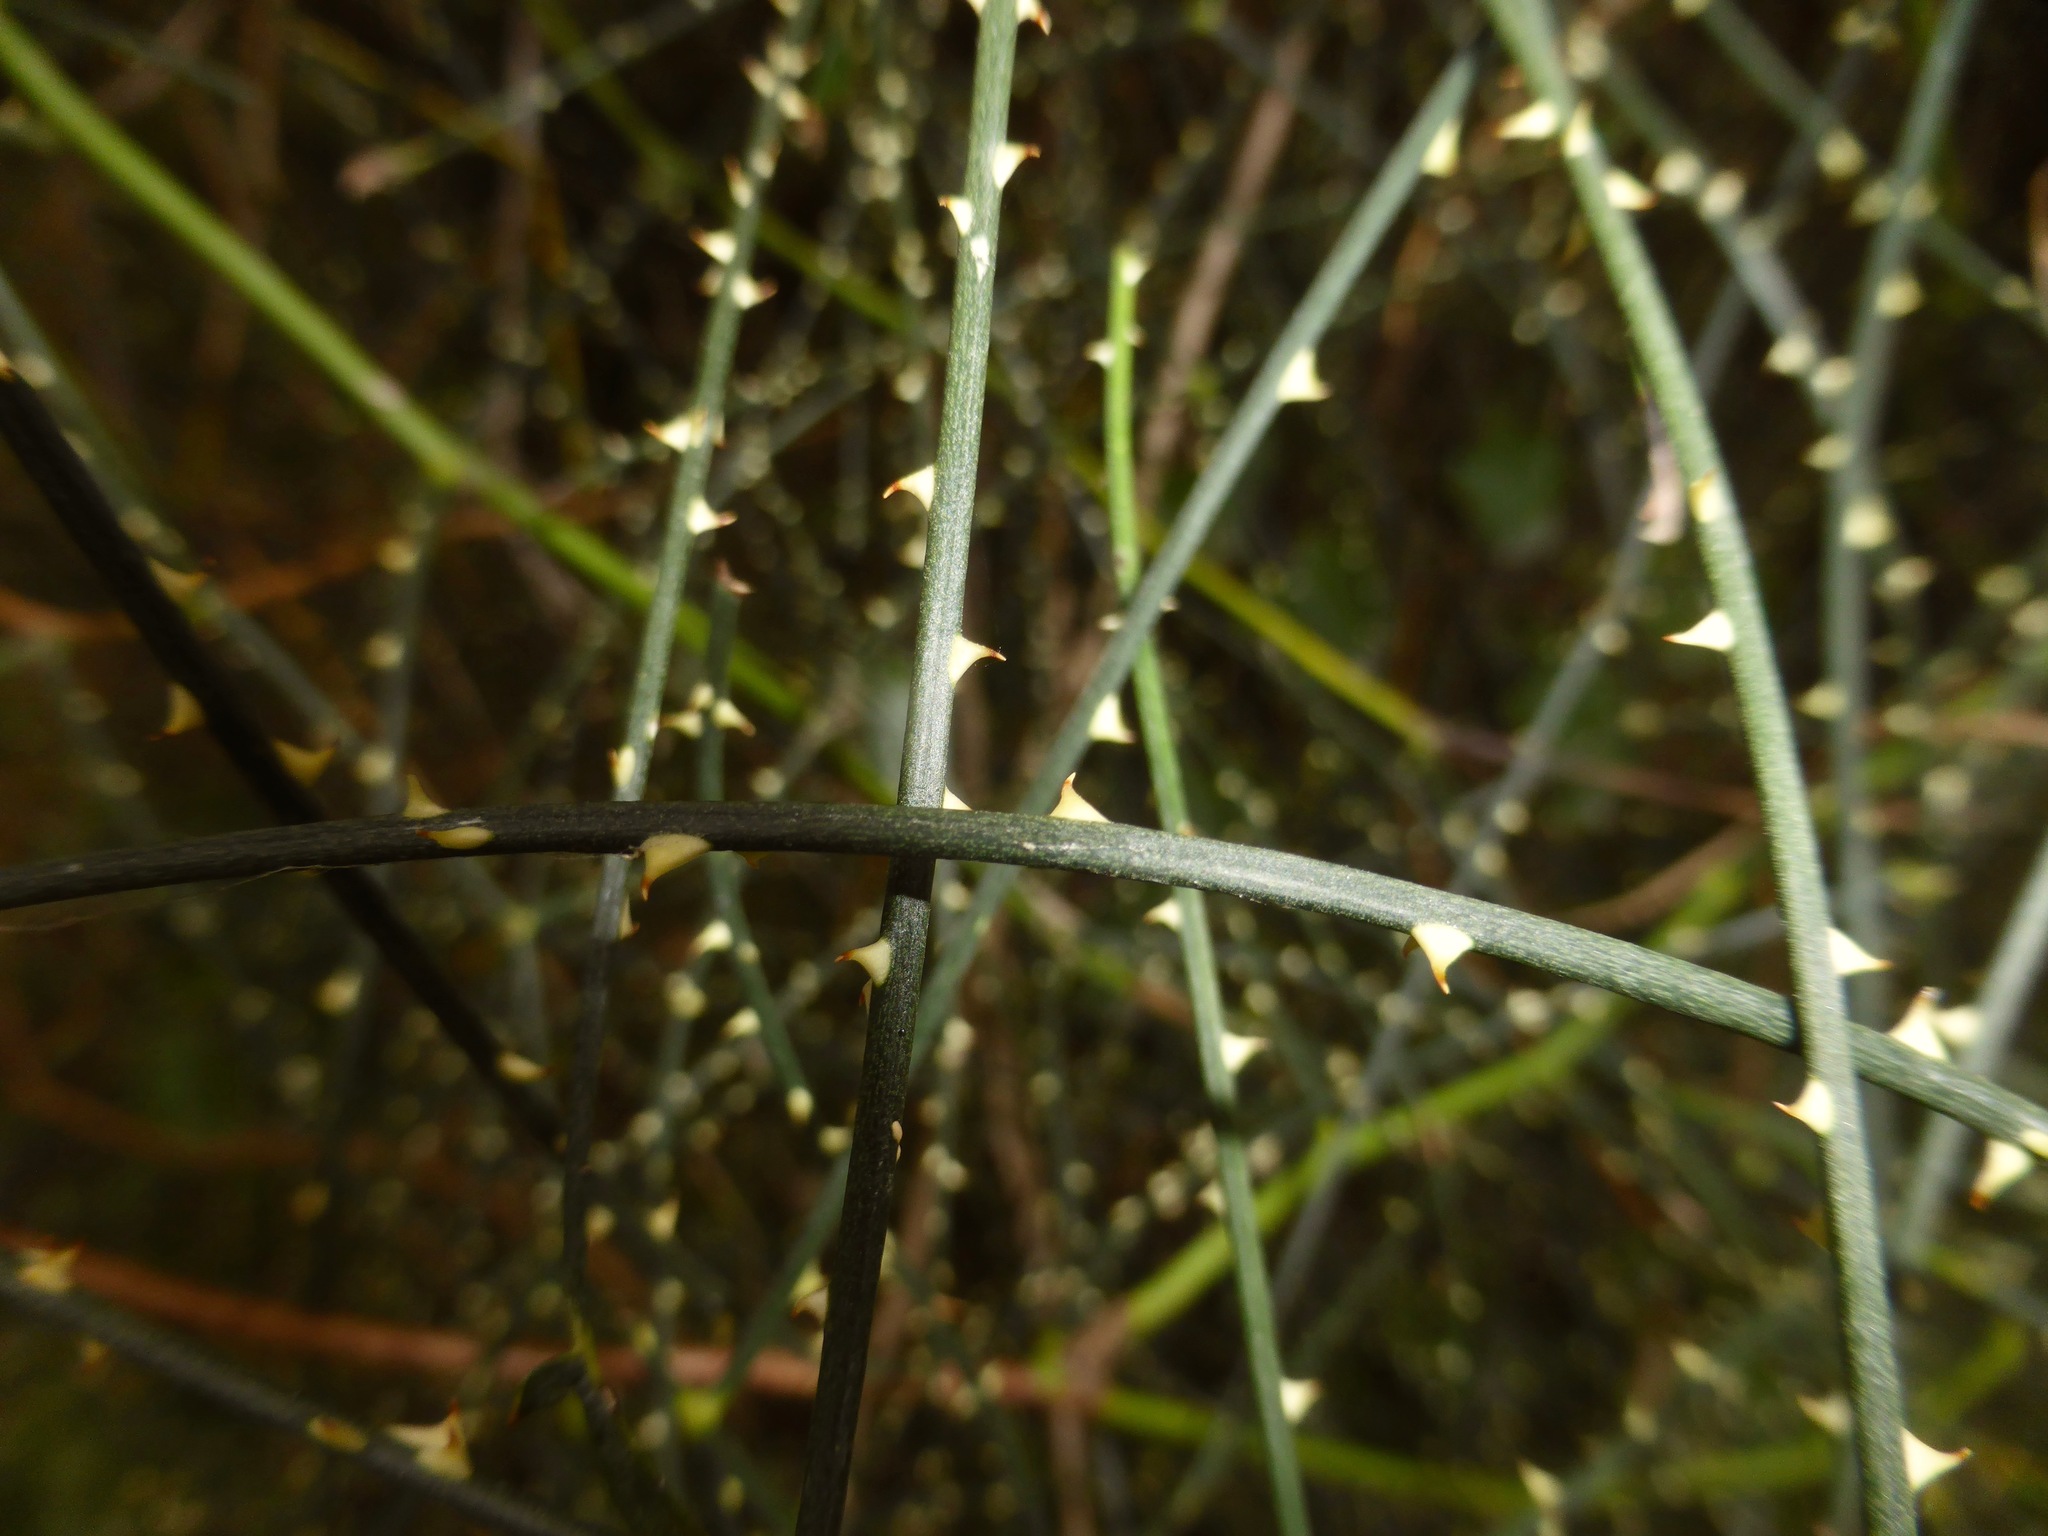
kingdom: Plantae
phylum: Tracheophyta
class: Magnoliopsida
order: Rosales
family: Rosaceae
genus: Rubus
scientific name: Rubus squarrosus
